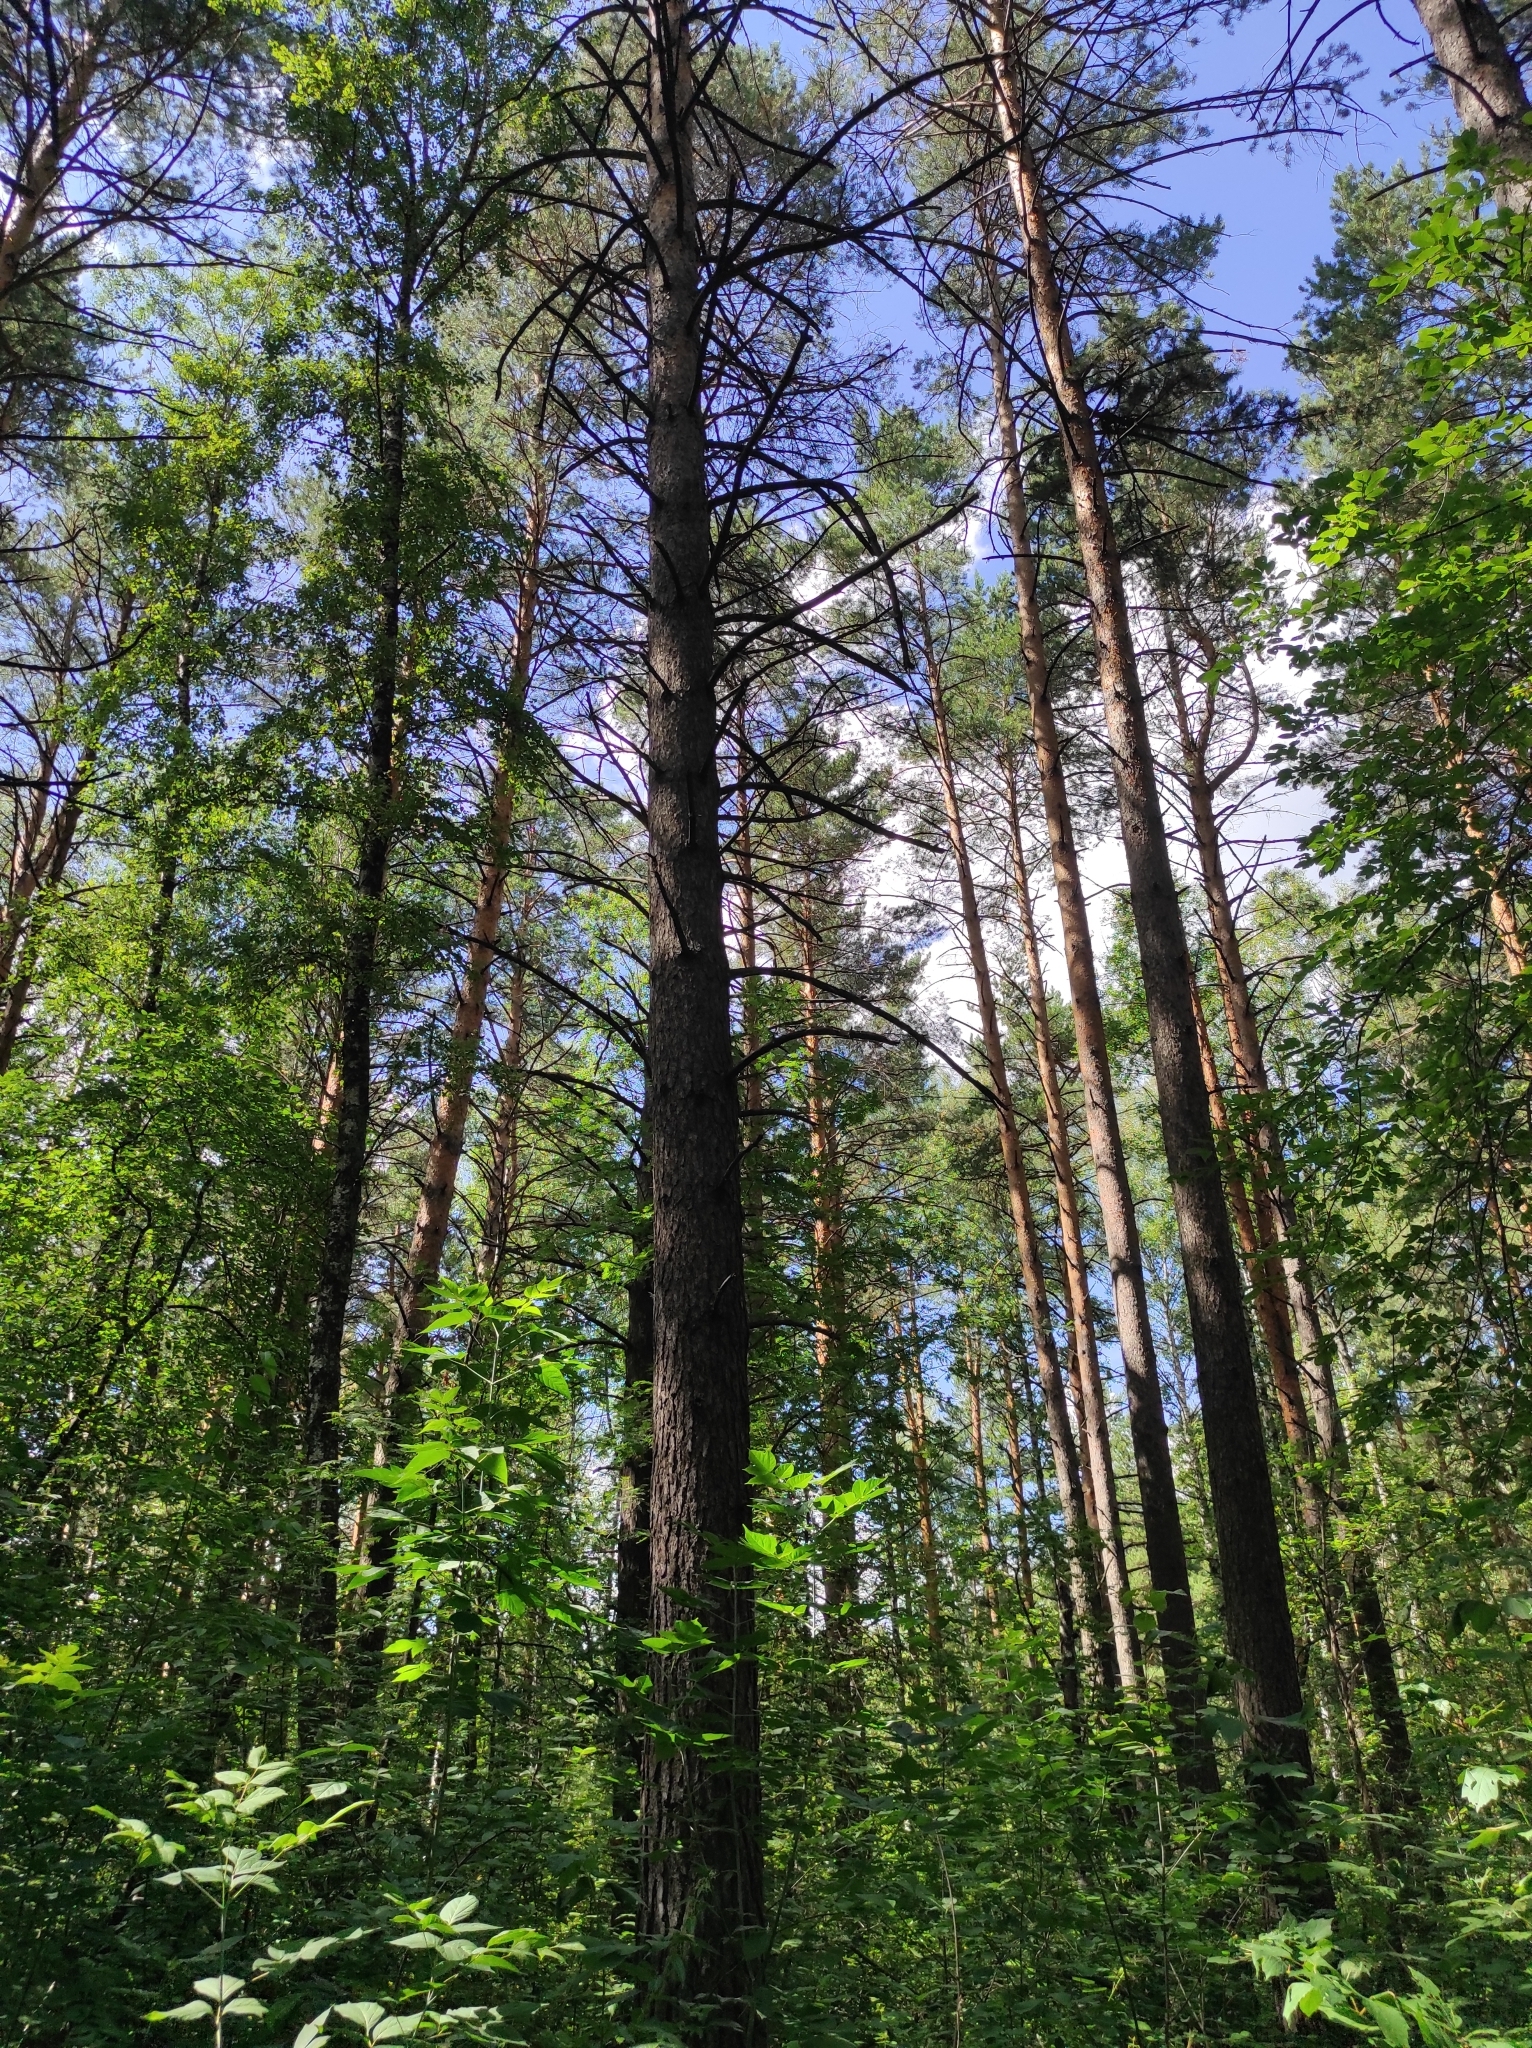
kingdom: Plantae
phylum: Tracheophyta
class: Pinopsida
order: Pinales
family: Pinaceae
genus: Pinus
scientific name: Pinus sylvestris
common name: Scots pine
